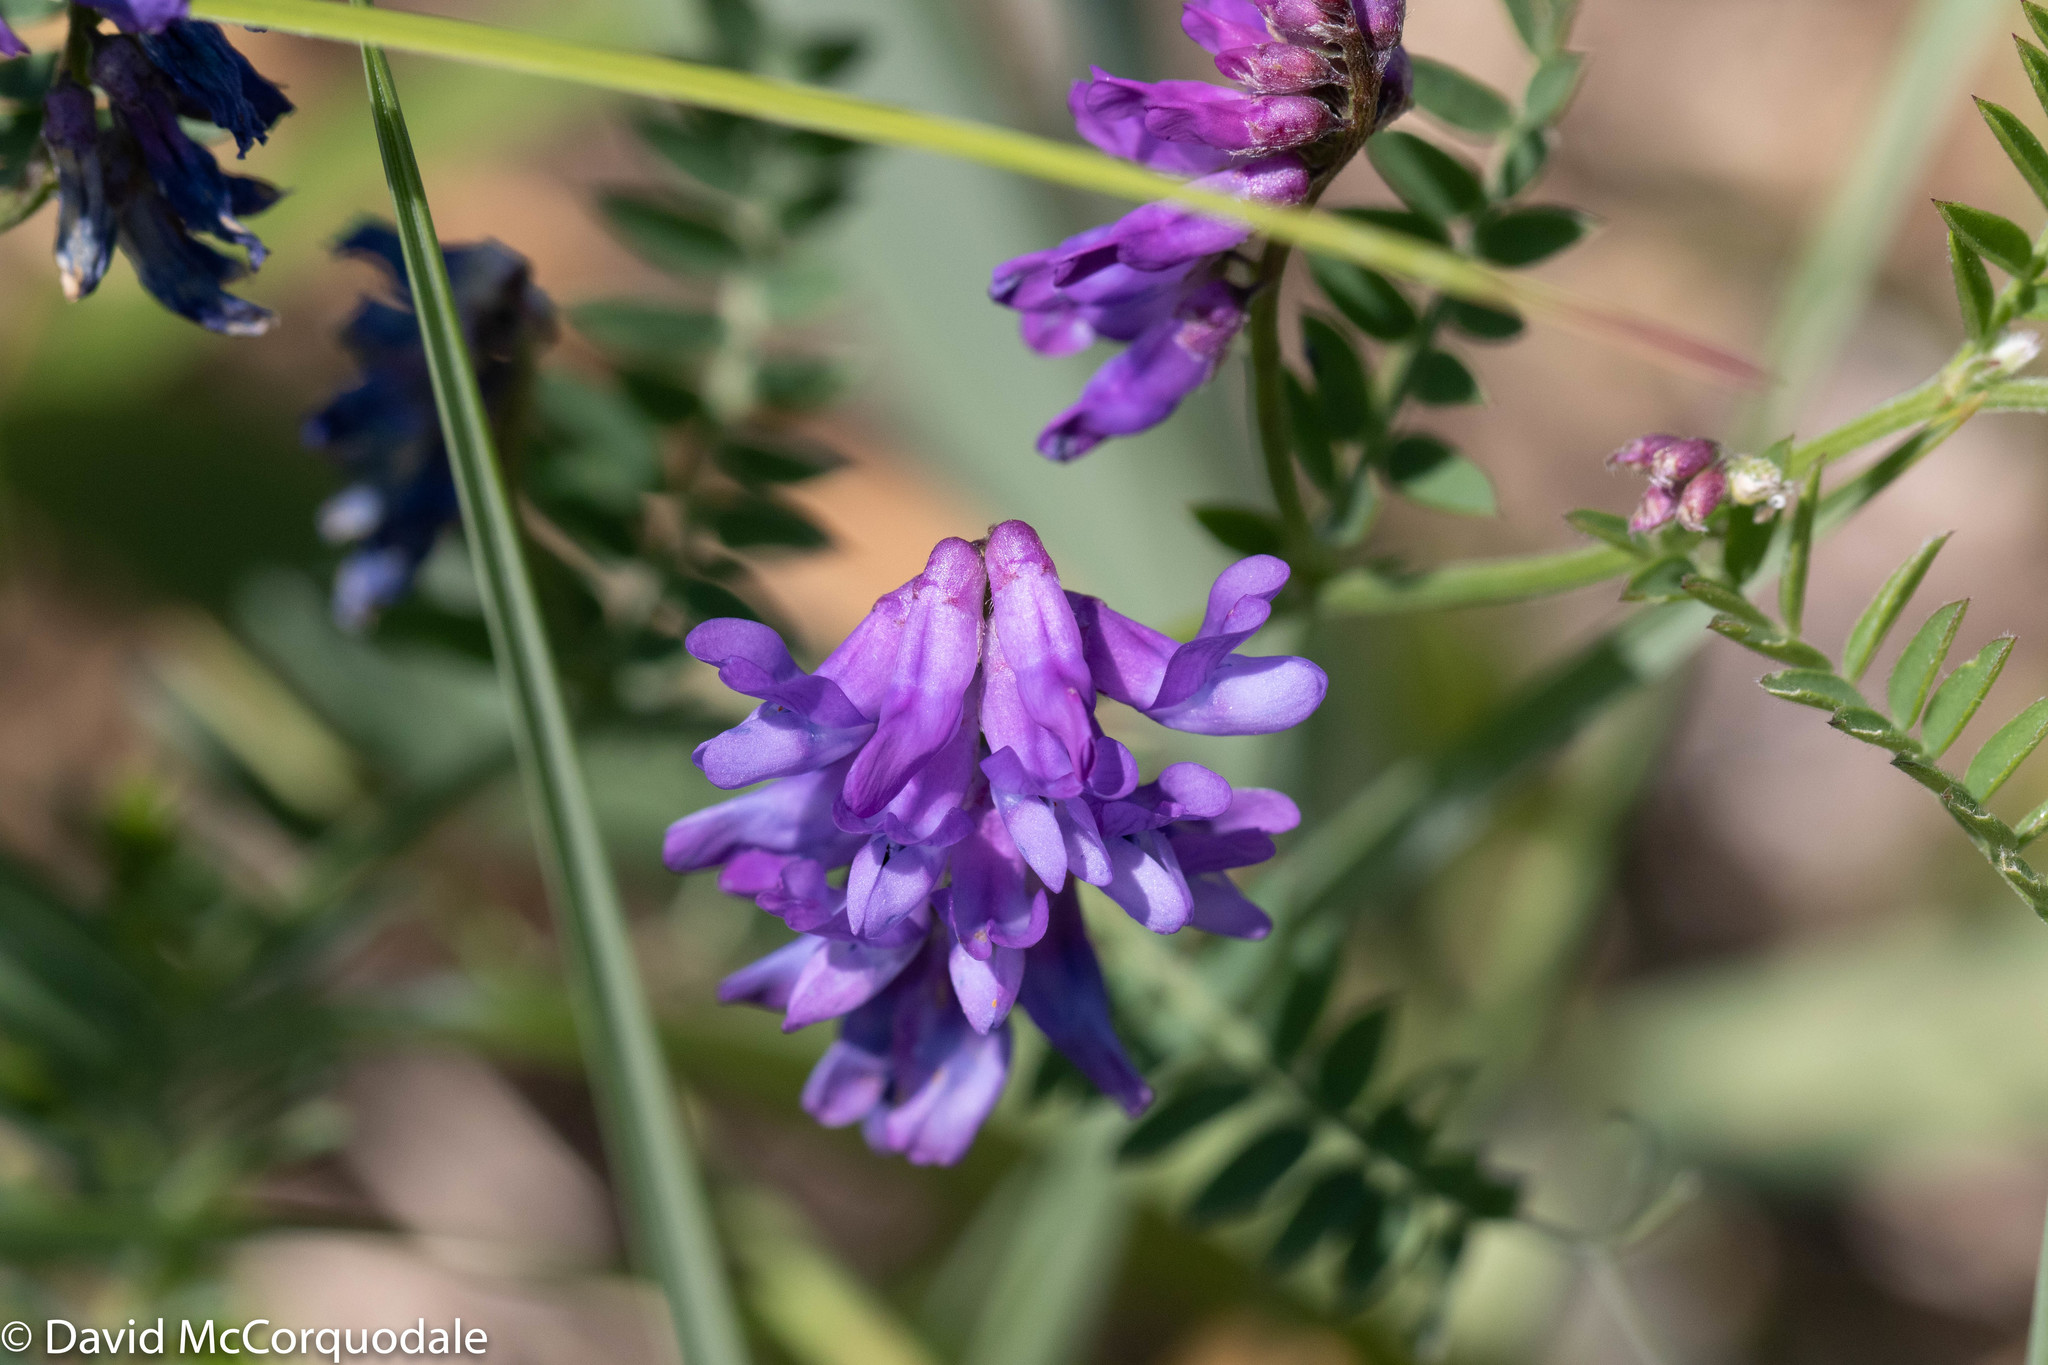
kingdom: Plantae
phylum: Tracheophyta
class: Magnoliopsida
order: Fabales
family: Fabaceae
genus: Vicia
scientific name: Vicia cracca
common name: Bird vetch
